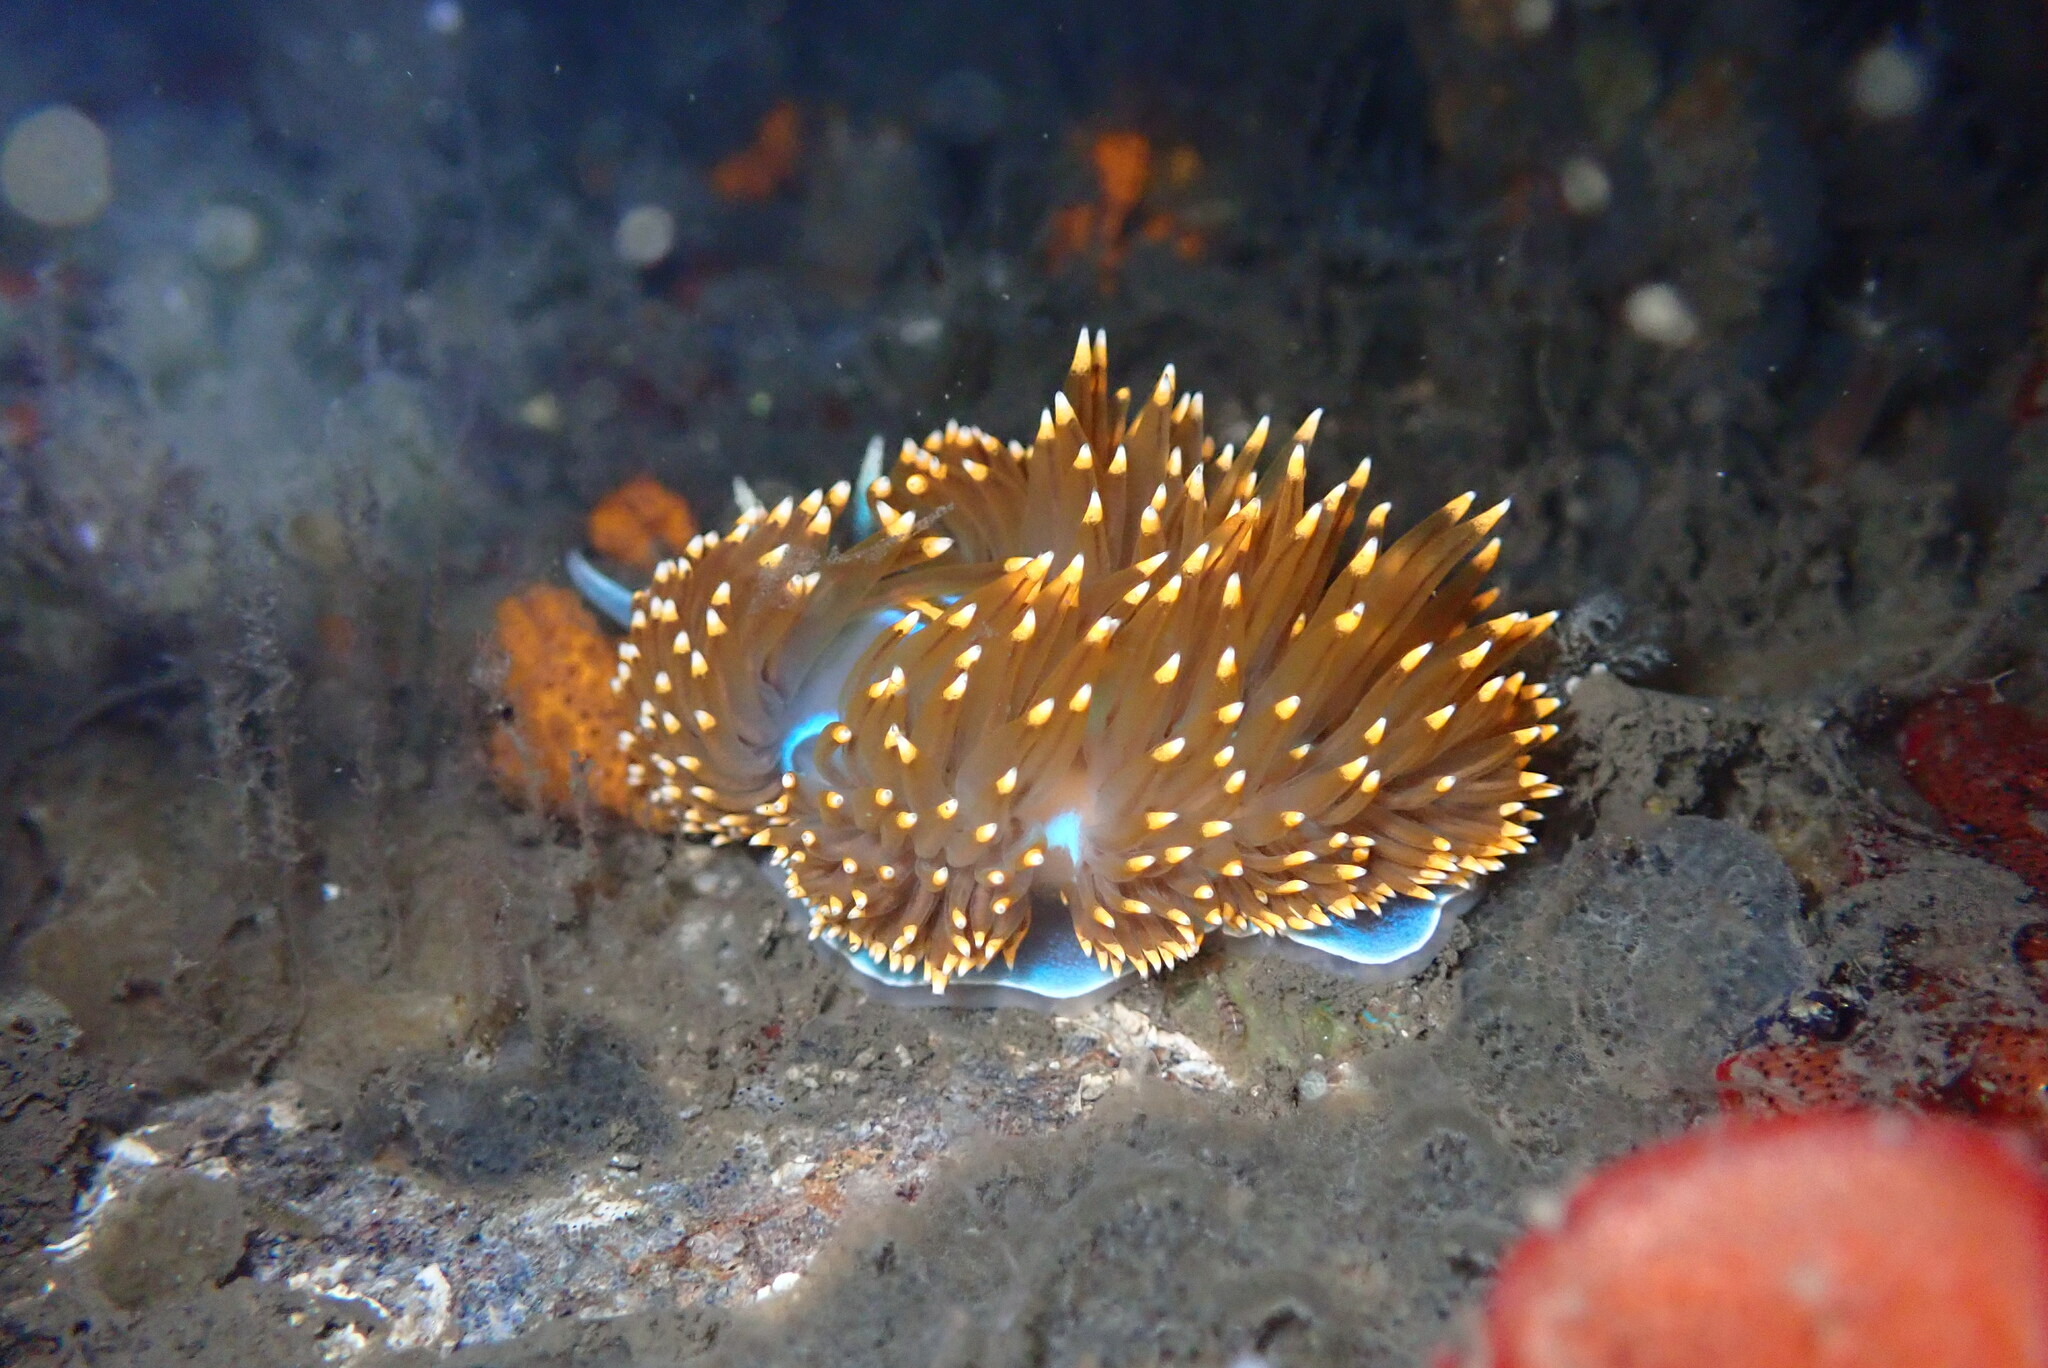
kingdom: Animalia
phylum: Mollusca
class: Gastropoda
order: Nudibranchia
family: Myrrhinidae
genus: Hermissenda
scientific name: Hermissenda opalescens
